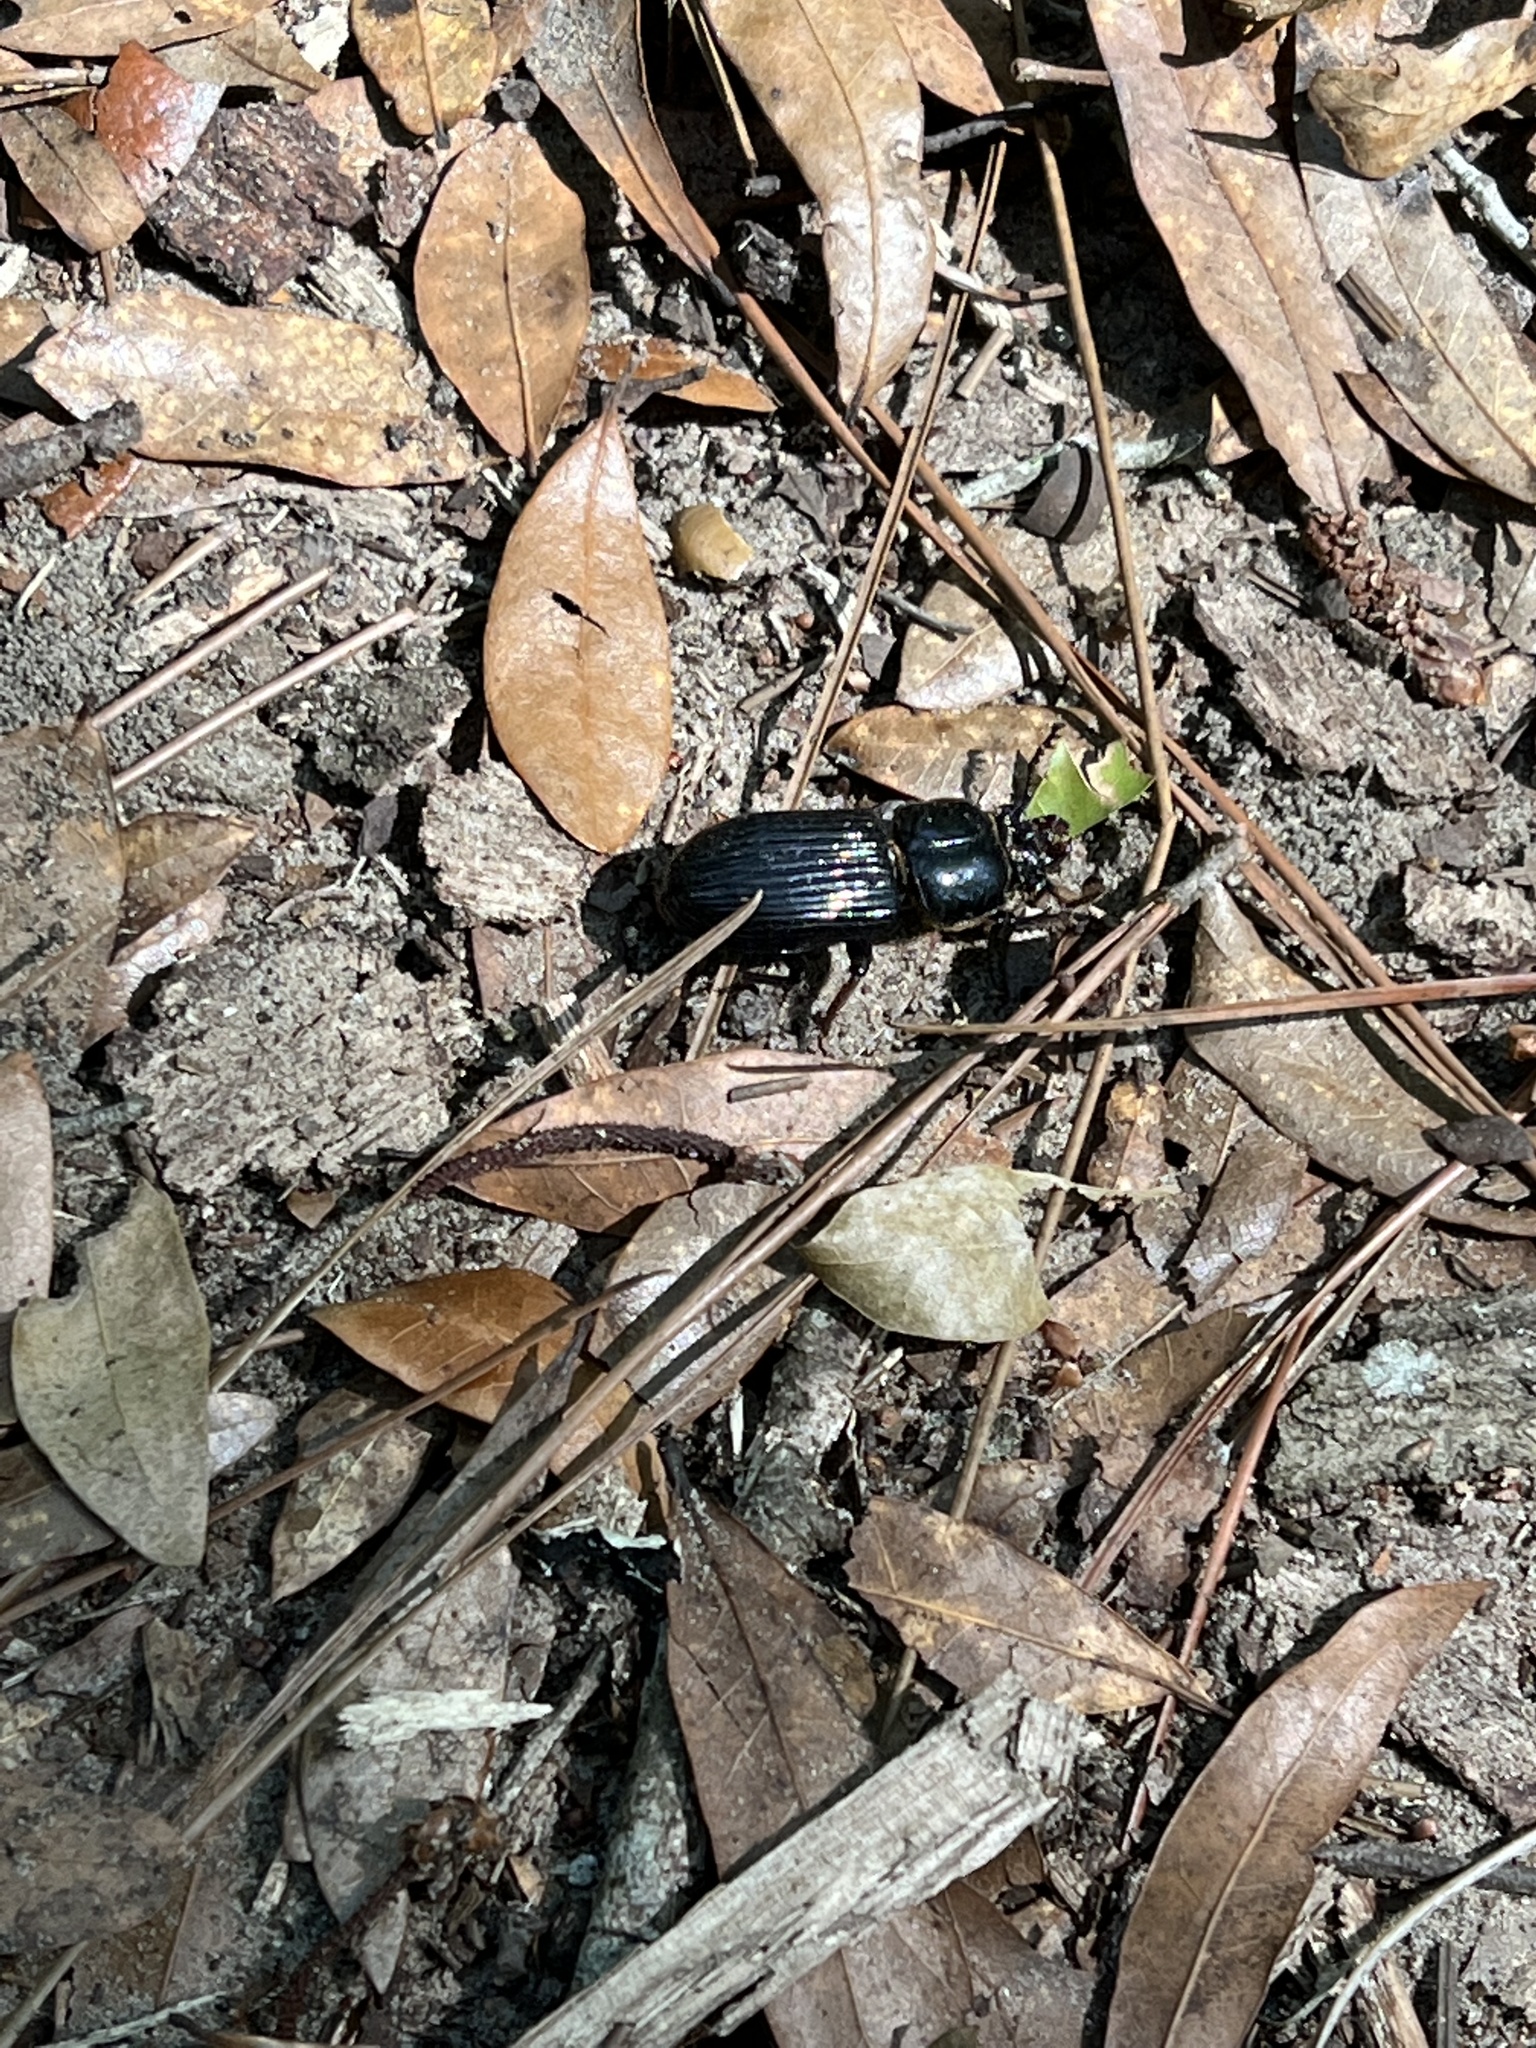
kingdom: Animalia
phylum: Arthropoda
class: Insecta
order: Coleoptera
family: Passalidae
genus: Odontotaenius
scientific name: Odontotaenius disjunctus
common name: Patent leather beetle
